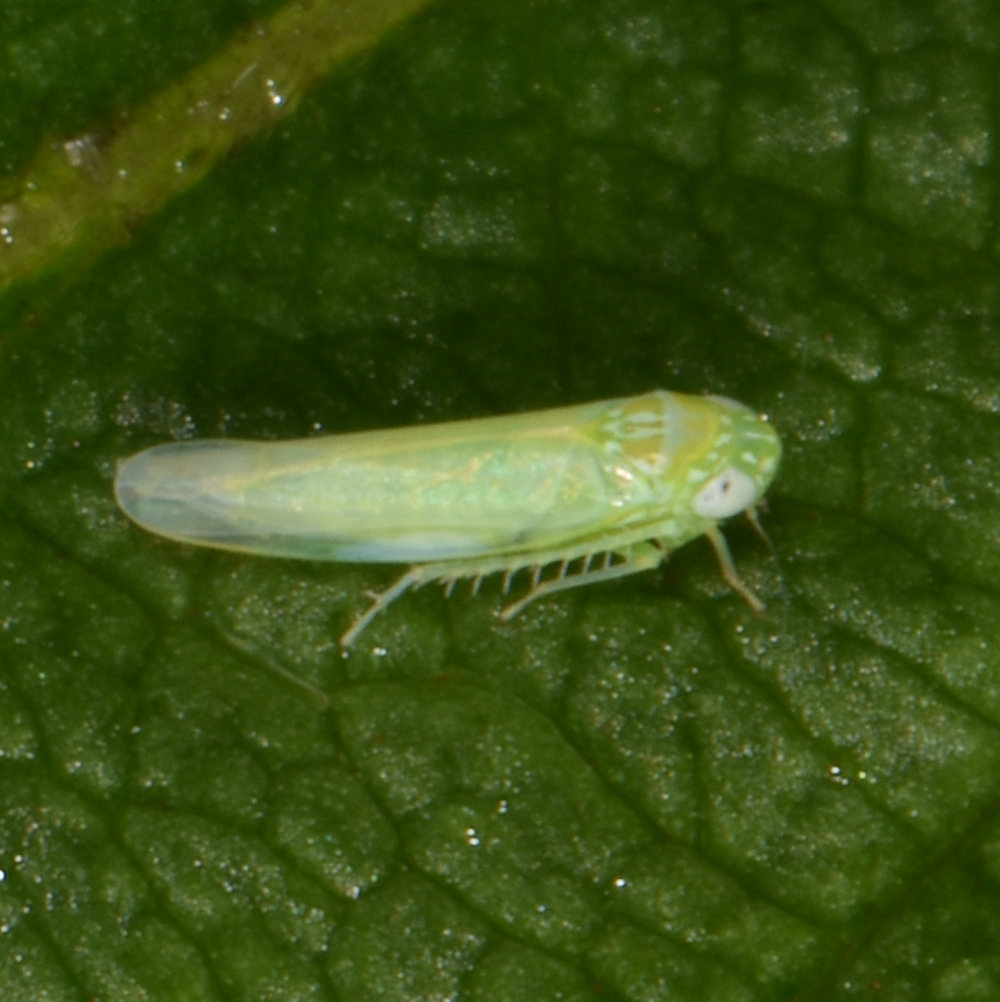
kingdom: Animalia
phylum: Arthropoda
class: Insecta
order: Hemiptera
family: Cicadellidae
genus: Empoasca
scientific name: Empoasca fabae
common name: Potato leafhopper
